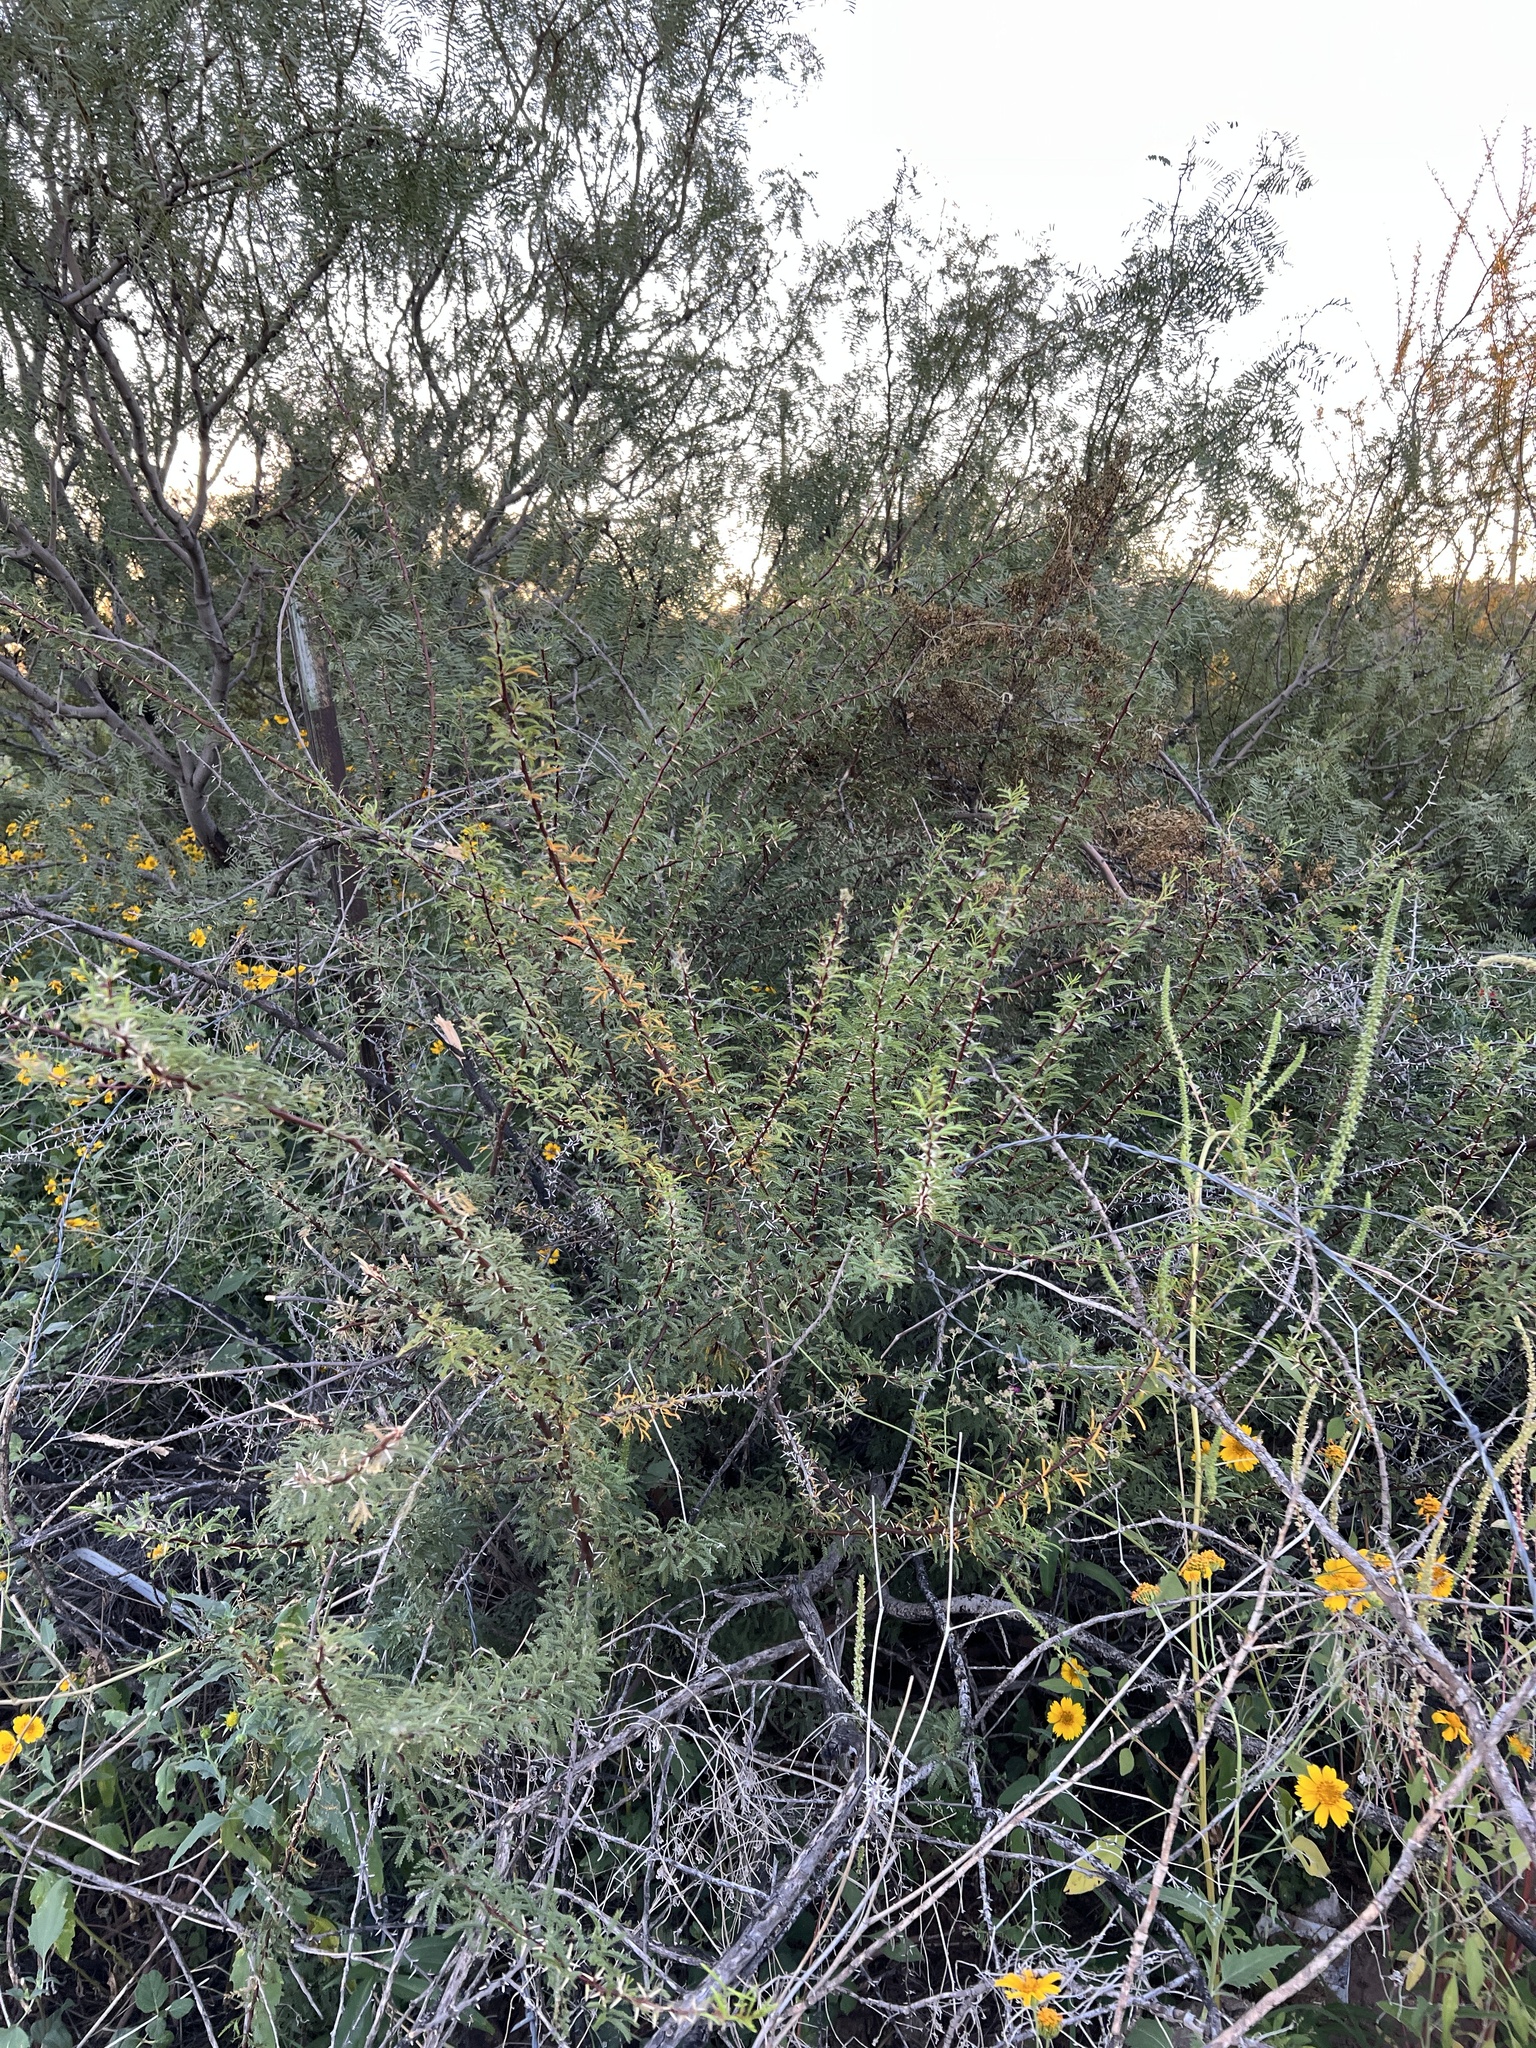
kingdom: Plantae
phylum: Tracheophyta
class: Magnoliopsida
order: Fabales
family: Fabaceae
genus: Vachellia
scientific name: Vachellia vernicosa
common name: Viscid acacia
